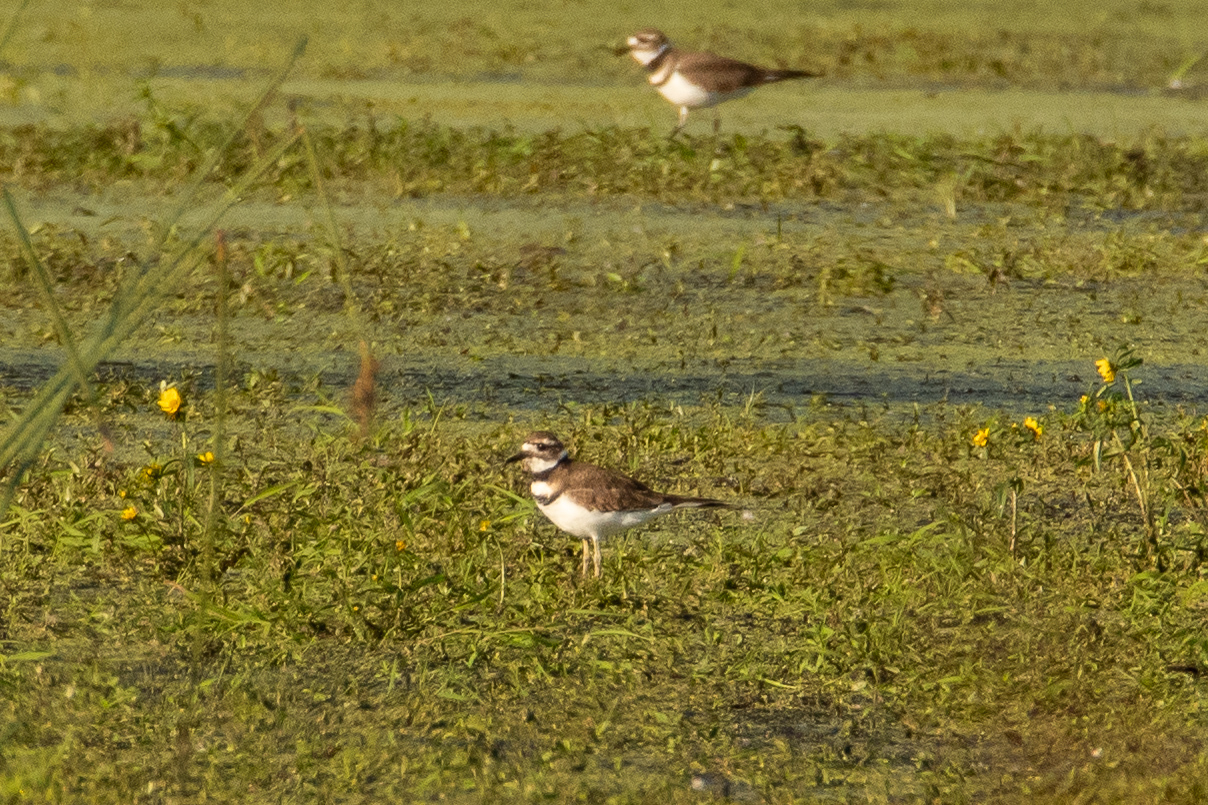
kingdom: Animalia
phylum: Chordata
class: Aves
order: Charadriiformes
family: Charadriidae
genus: Charadrius
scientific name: Charadrius vociferus
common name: Killdeer
